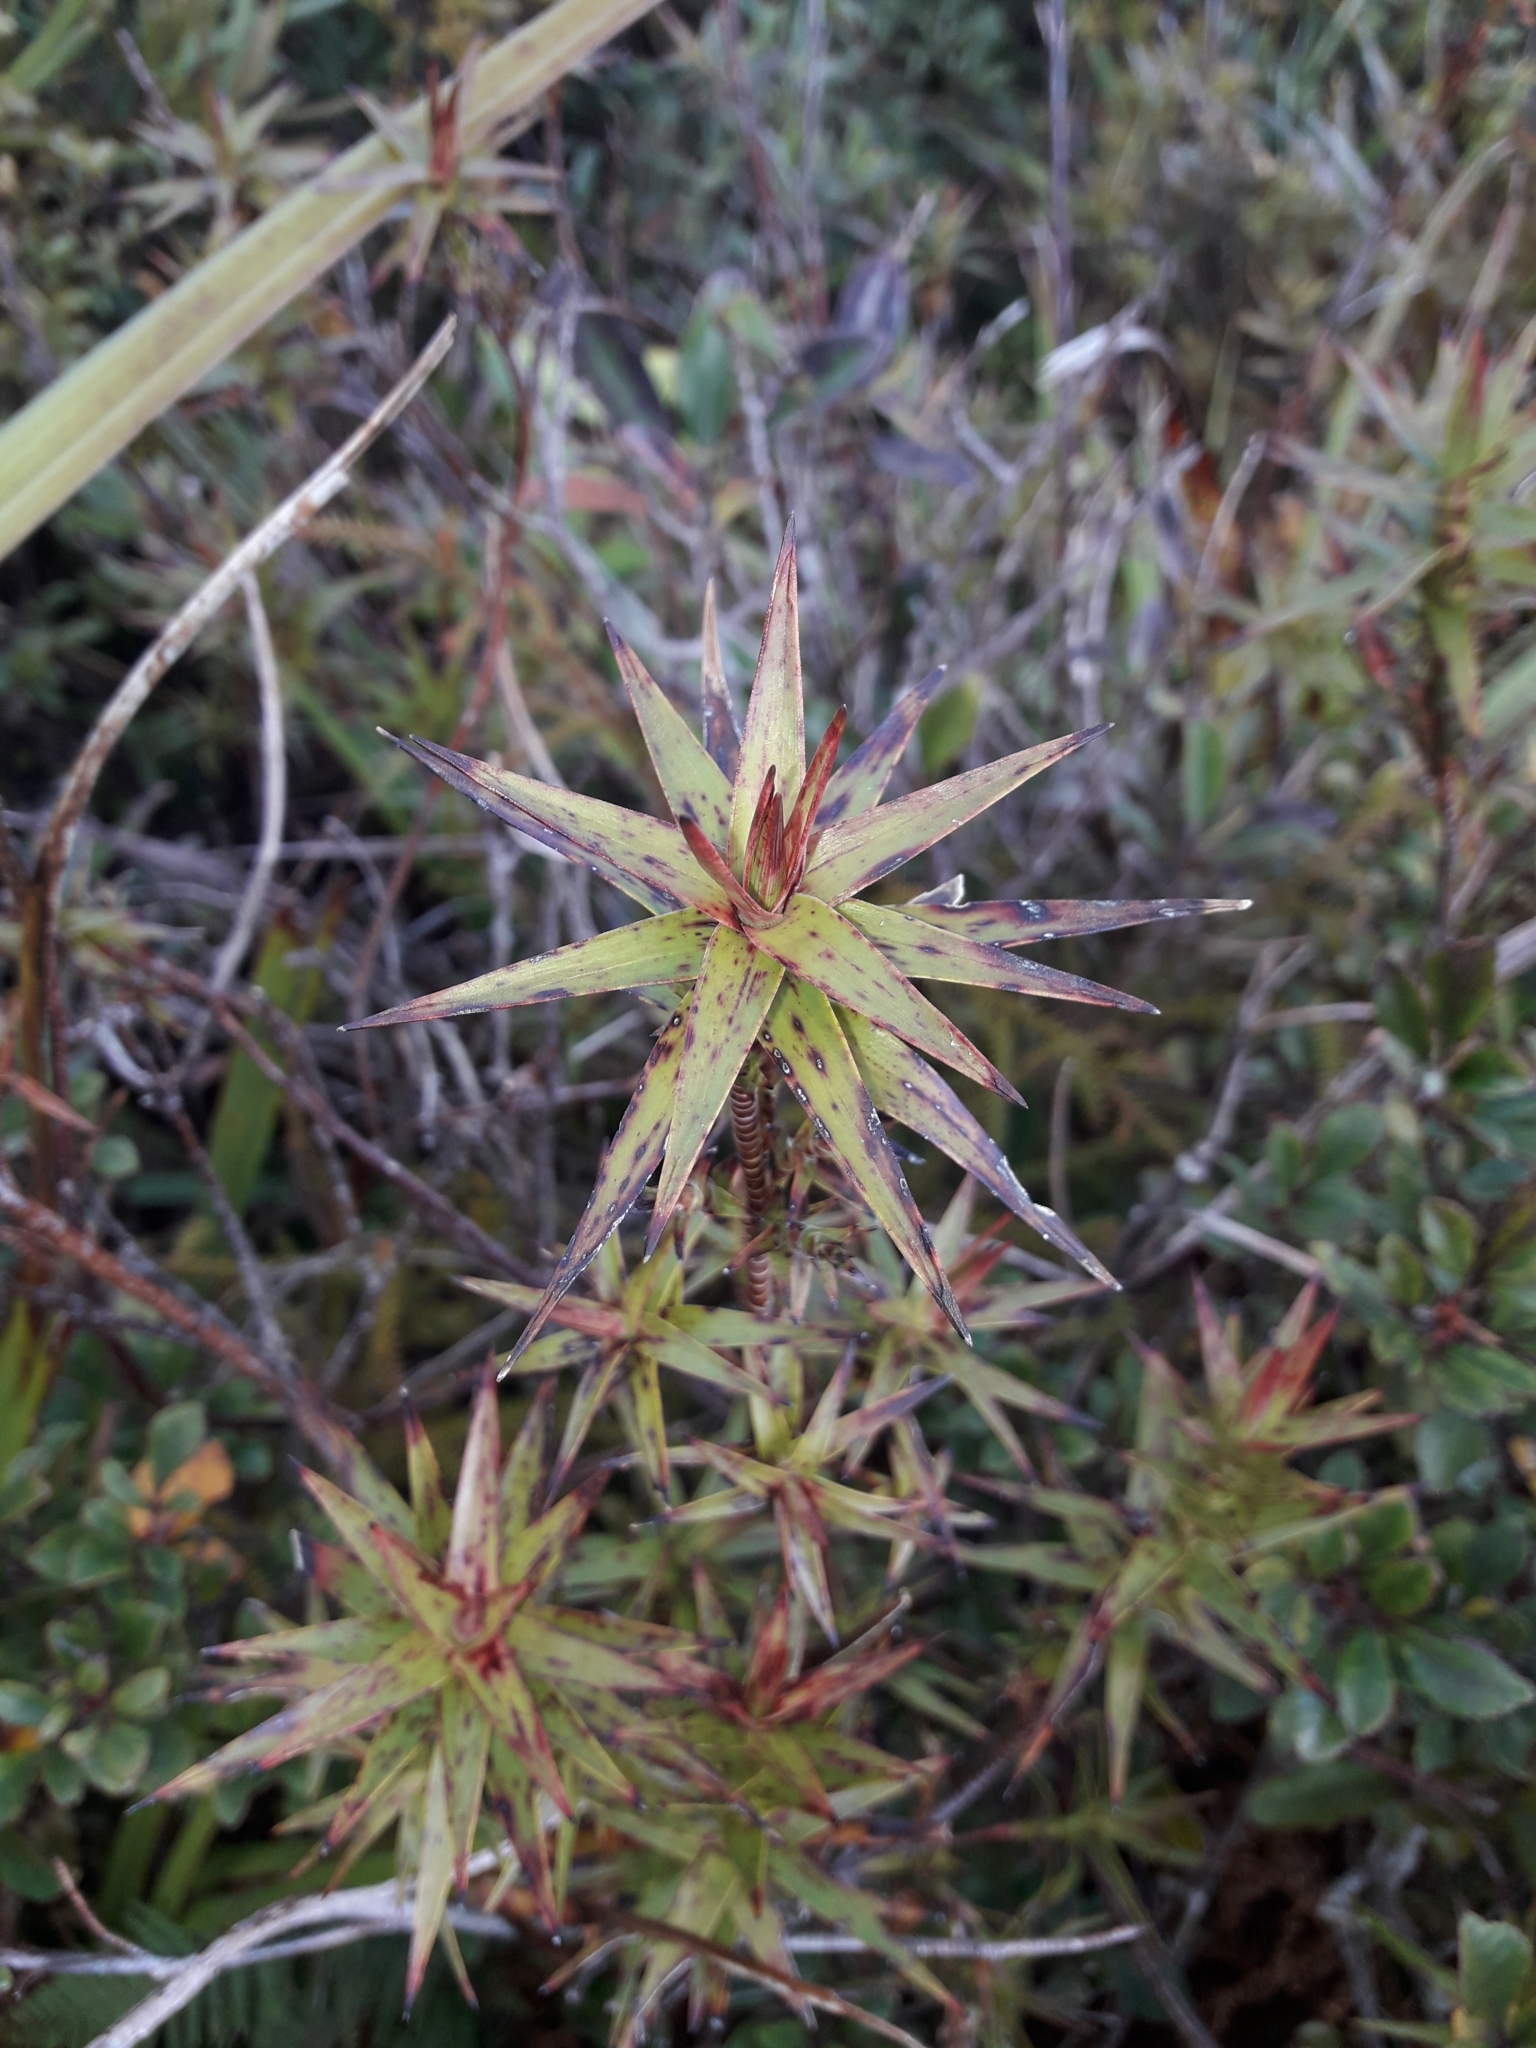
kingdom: Plantae
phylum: Tracheophyta
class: Magnoliopsida
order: Ericales
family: Ericaceae
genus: Dracophyllum
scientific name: Dracophyllum patens
